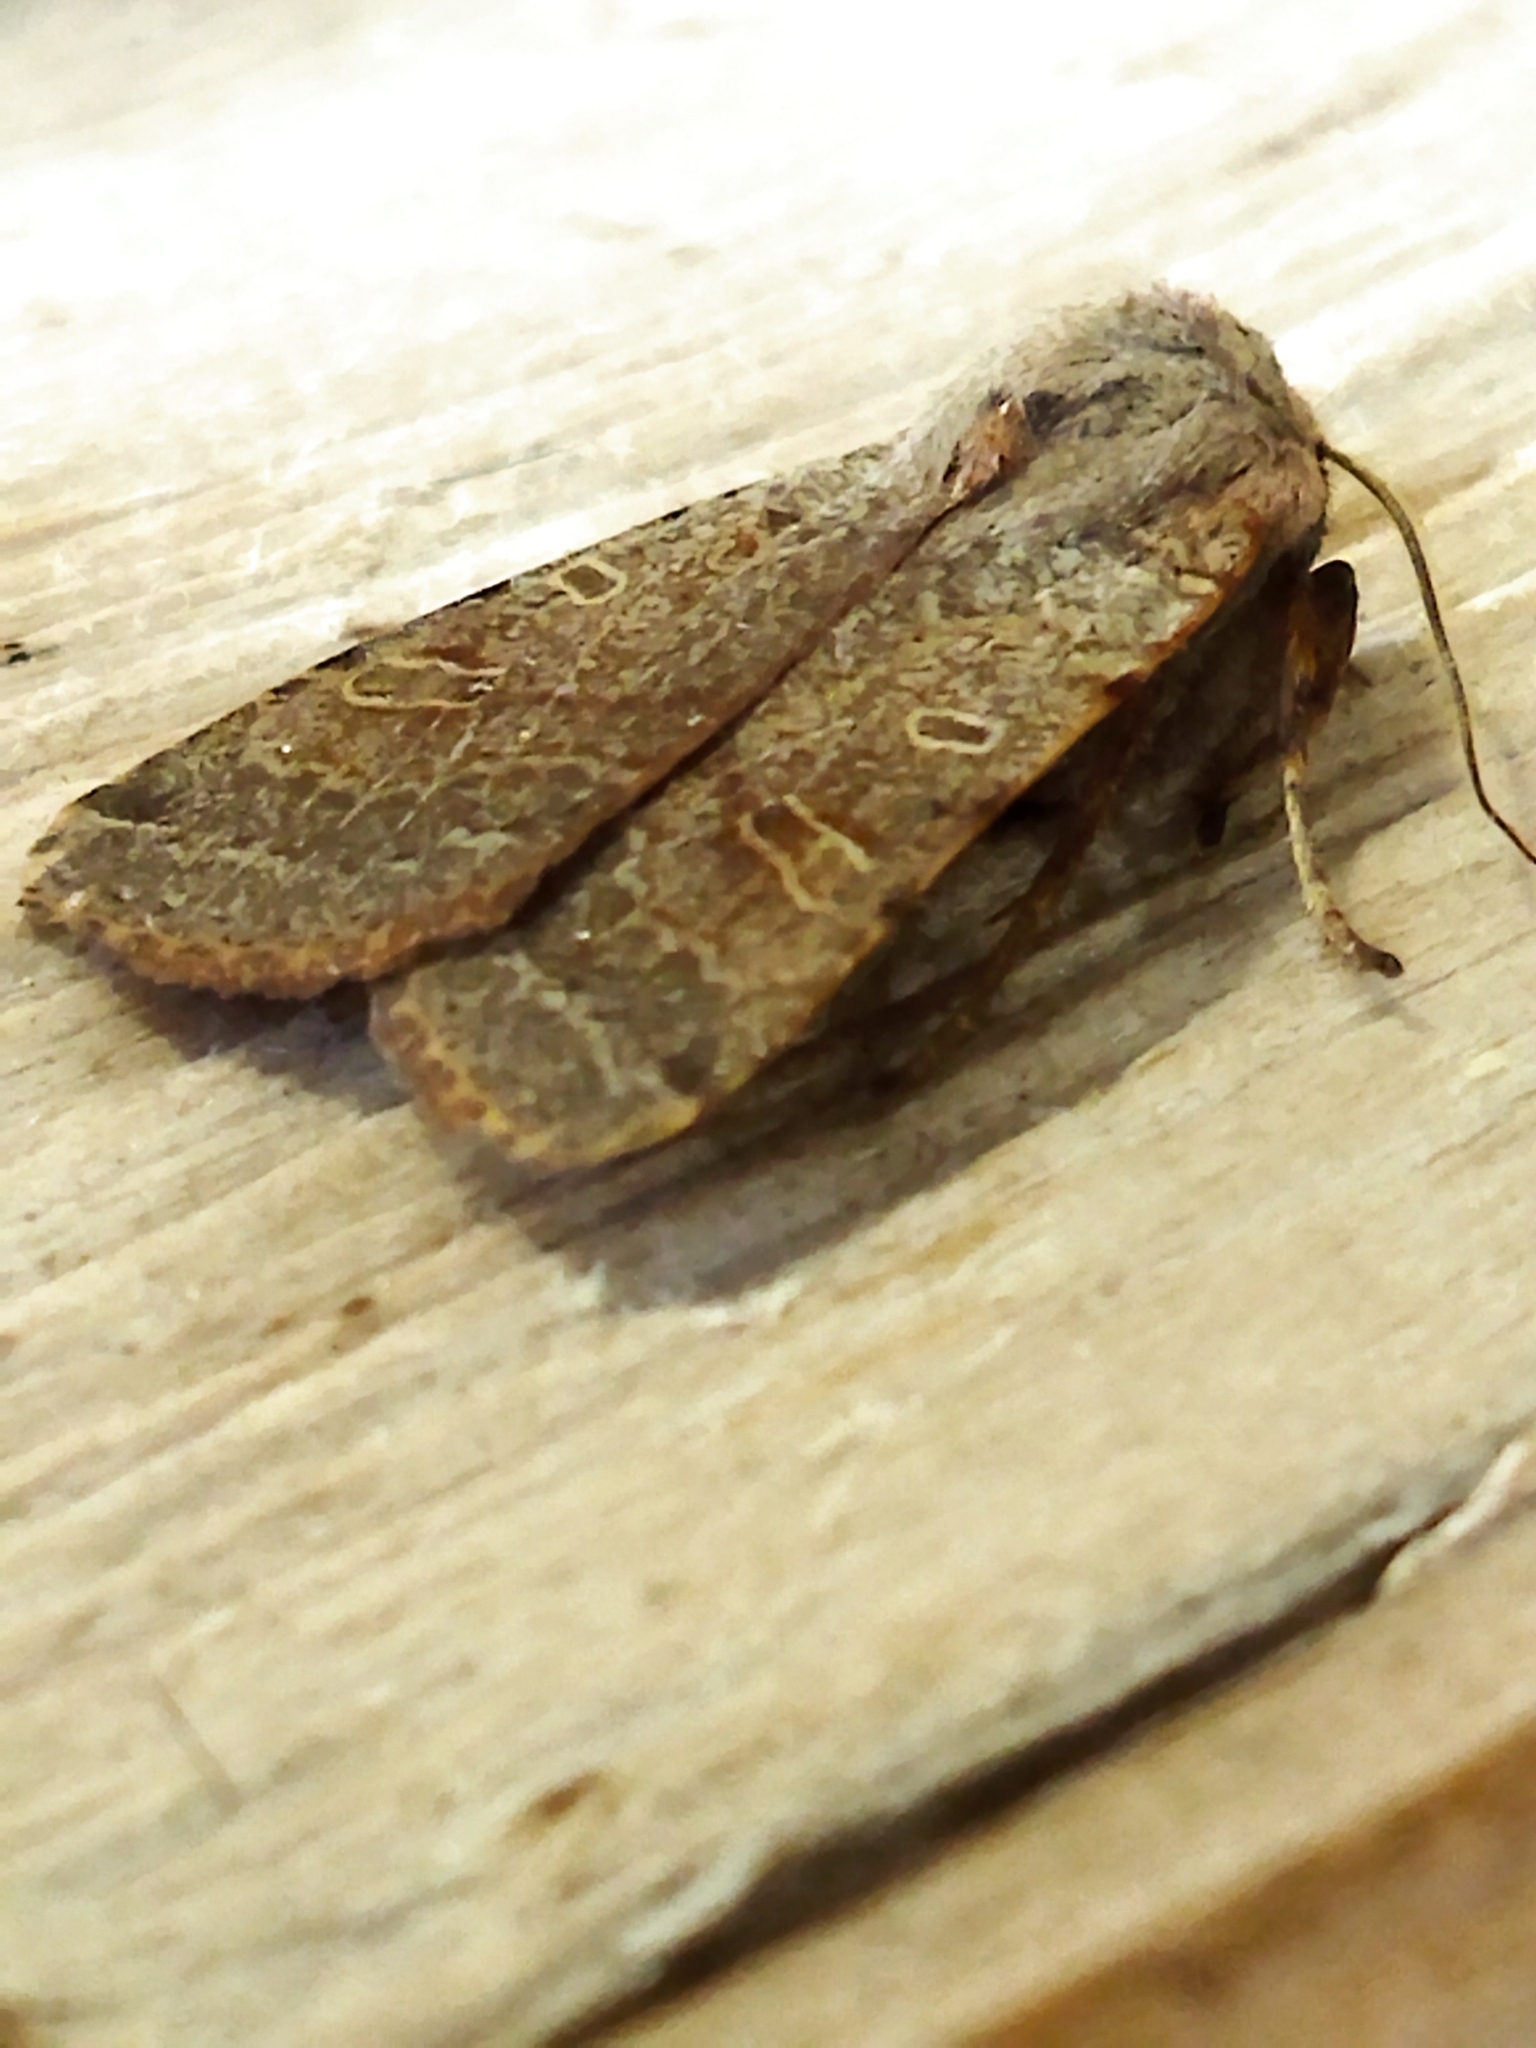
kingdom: Animalia
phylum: Arthropoda
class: Insecta
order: Lepidoptera
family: Noctuidae
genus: Agrochola
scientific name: Agrochola lychnidis
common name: Beaded chestnut
